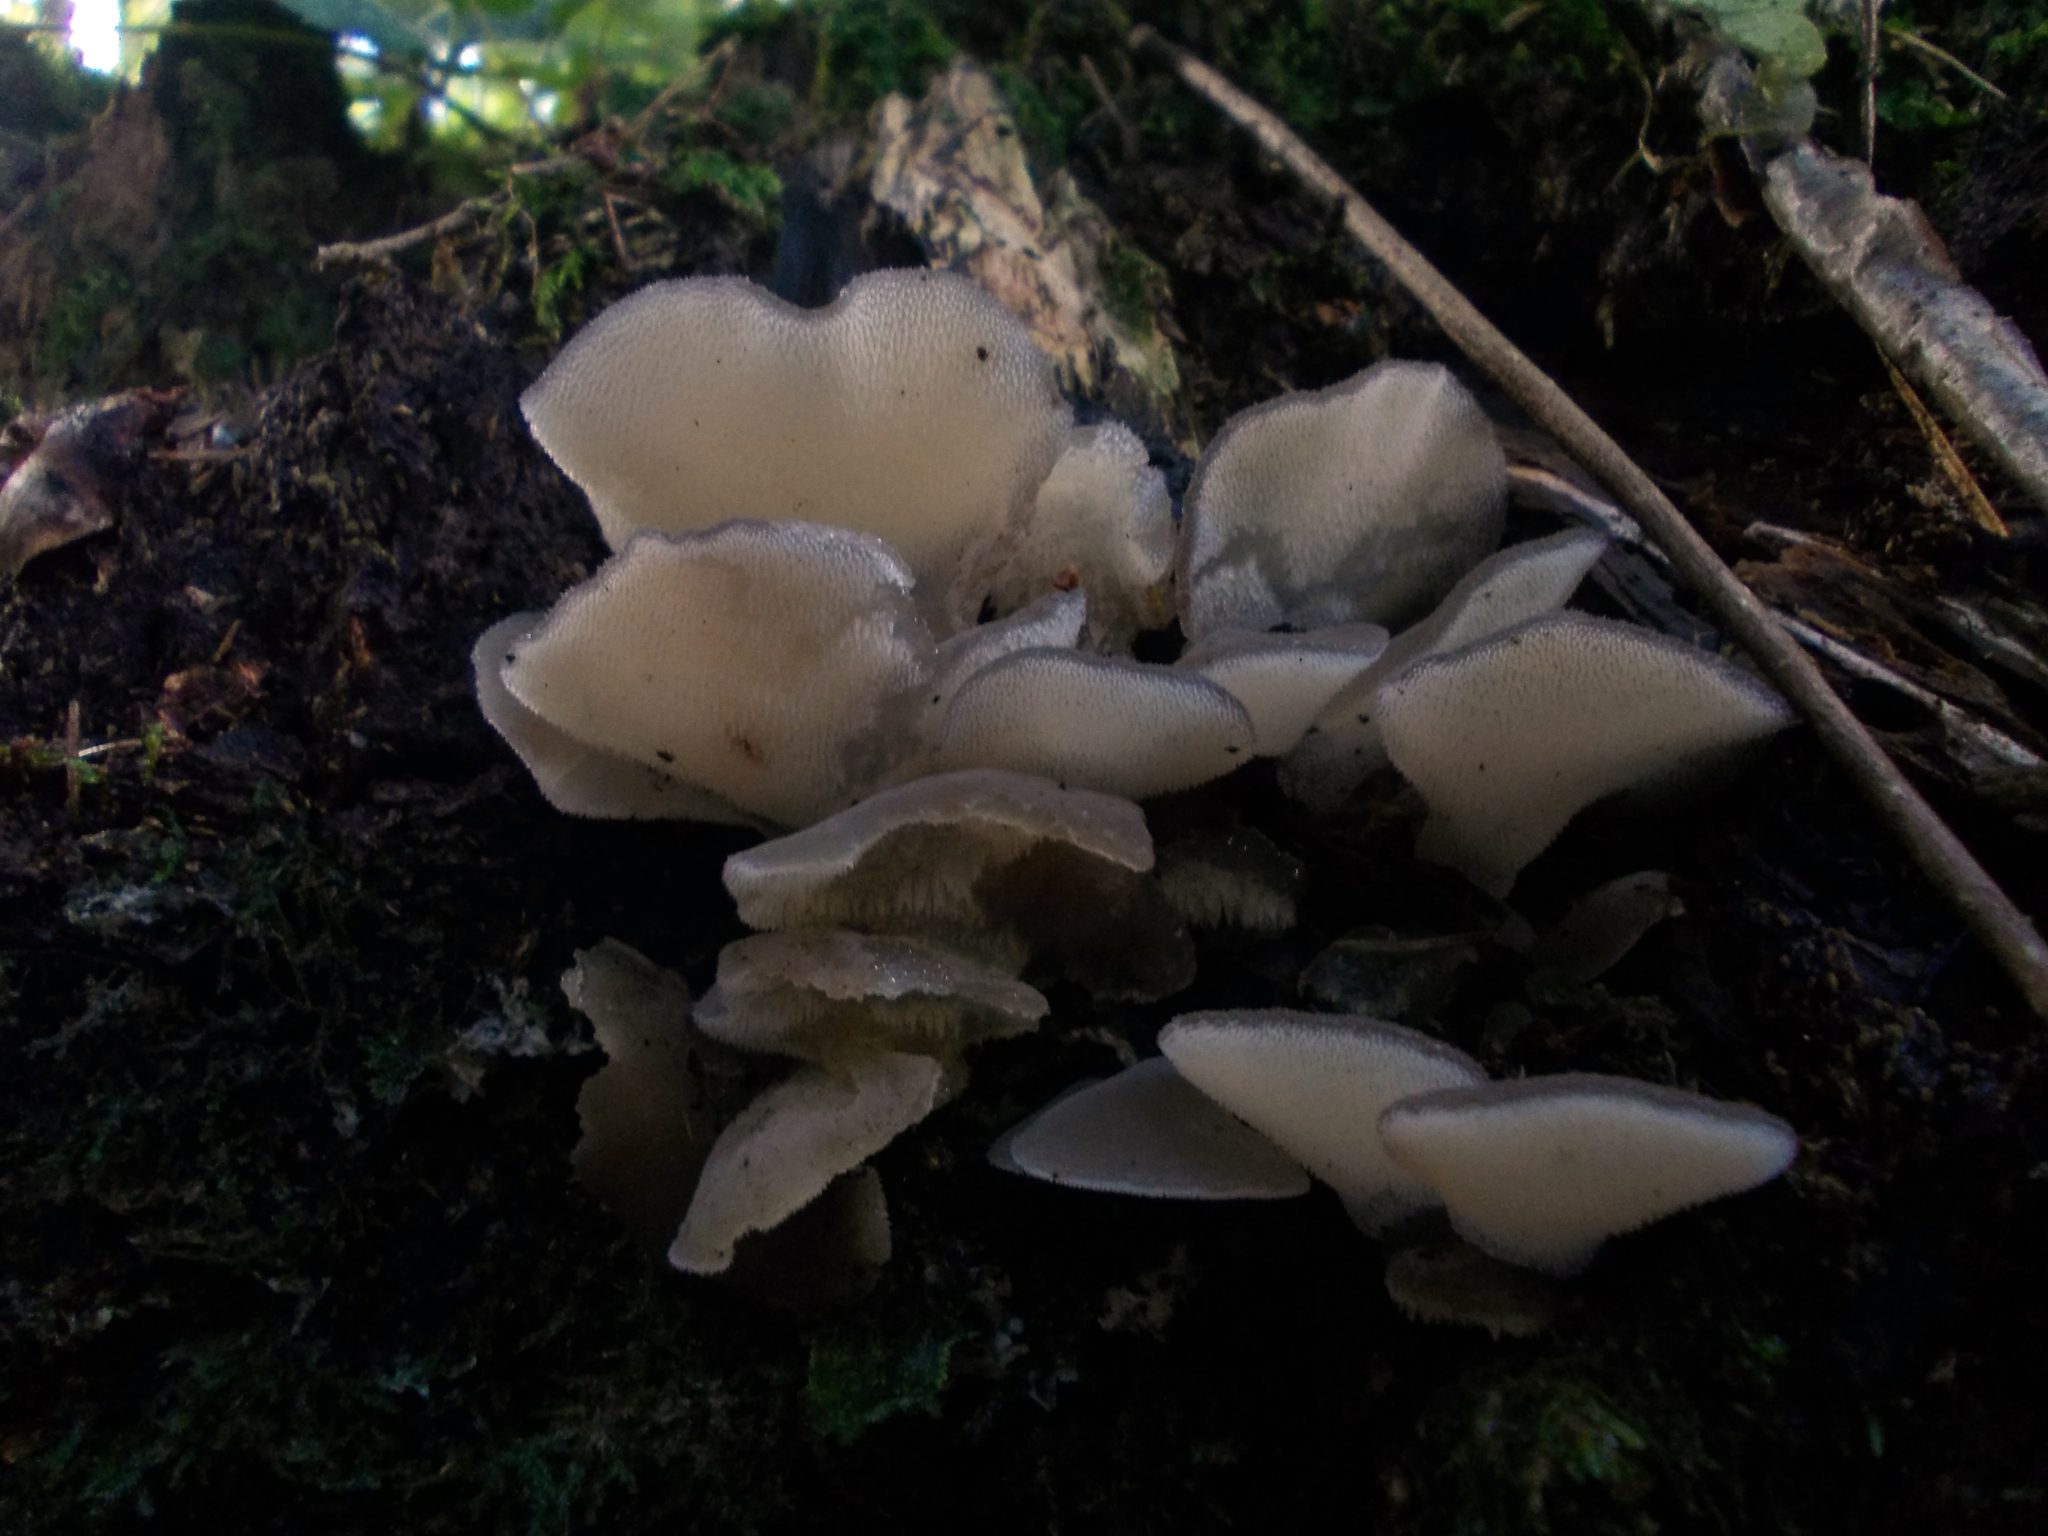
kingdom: Fungi
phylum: Basidiomycota
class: Agaricomycetes
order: Auriculariales
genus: Pseudohydnum
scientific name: Pseudohydnum gelatinosum
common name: Jelly tongue
